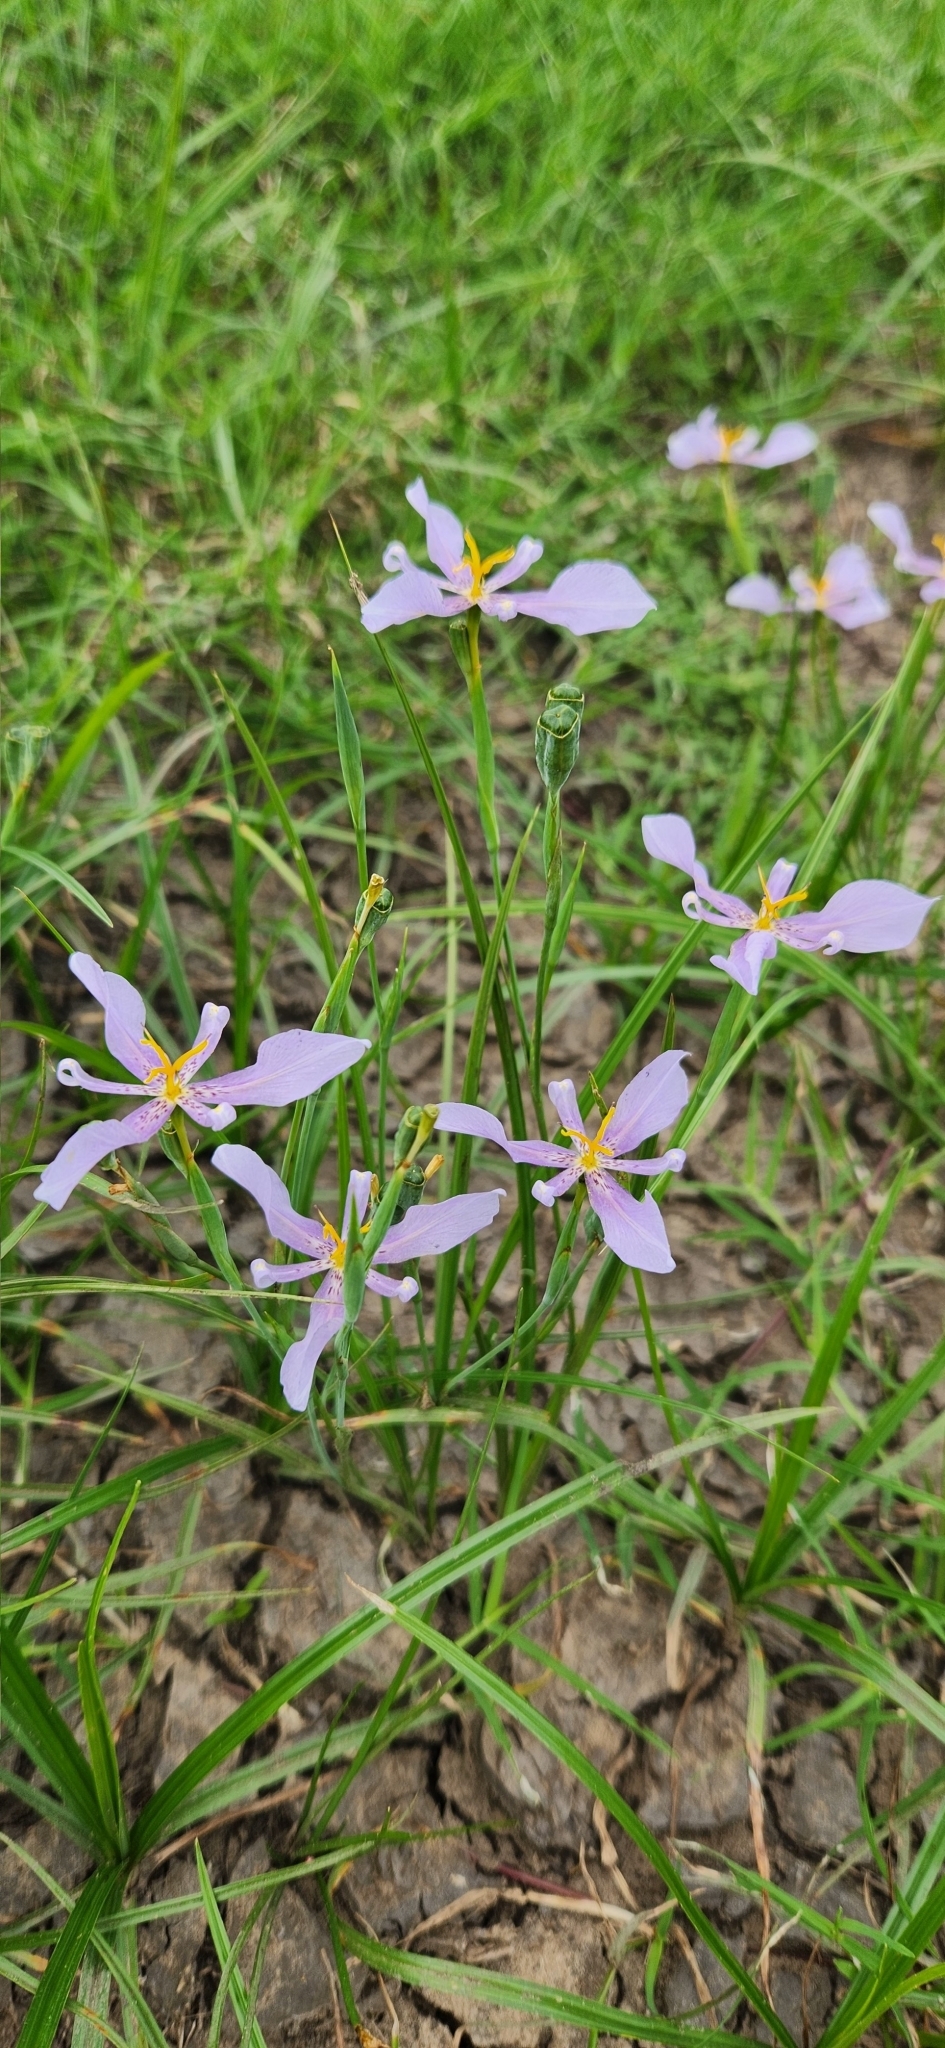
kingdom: Plantae
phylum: Tracheophyta
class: Liliopsida
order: Asparagales
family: Iridaceae
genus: Calydorea
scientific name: Calydorea amabilis
